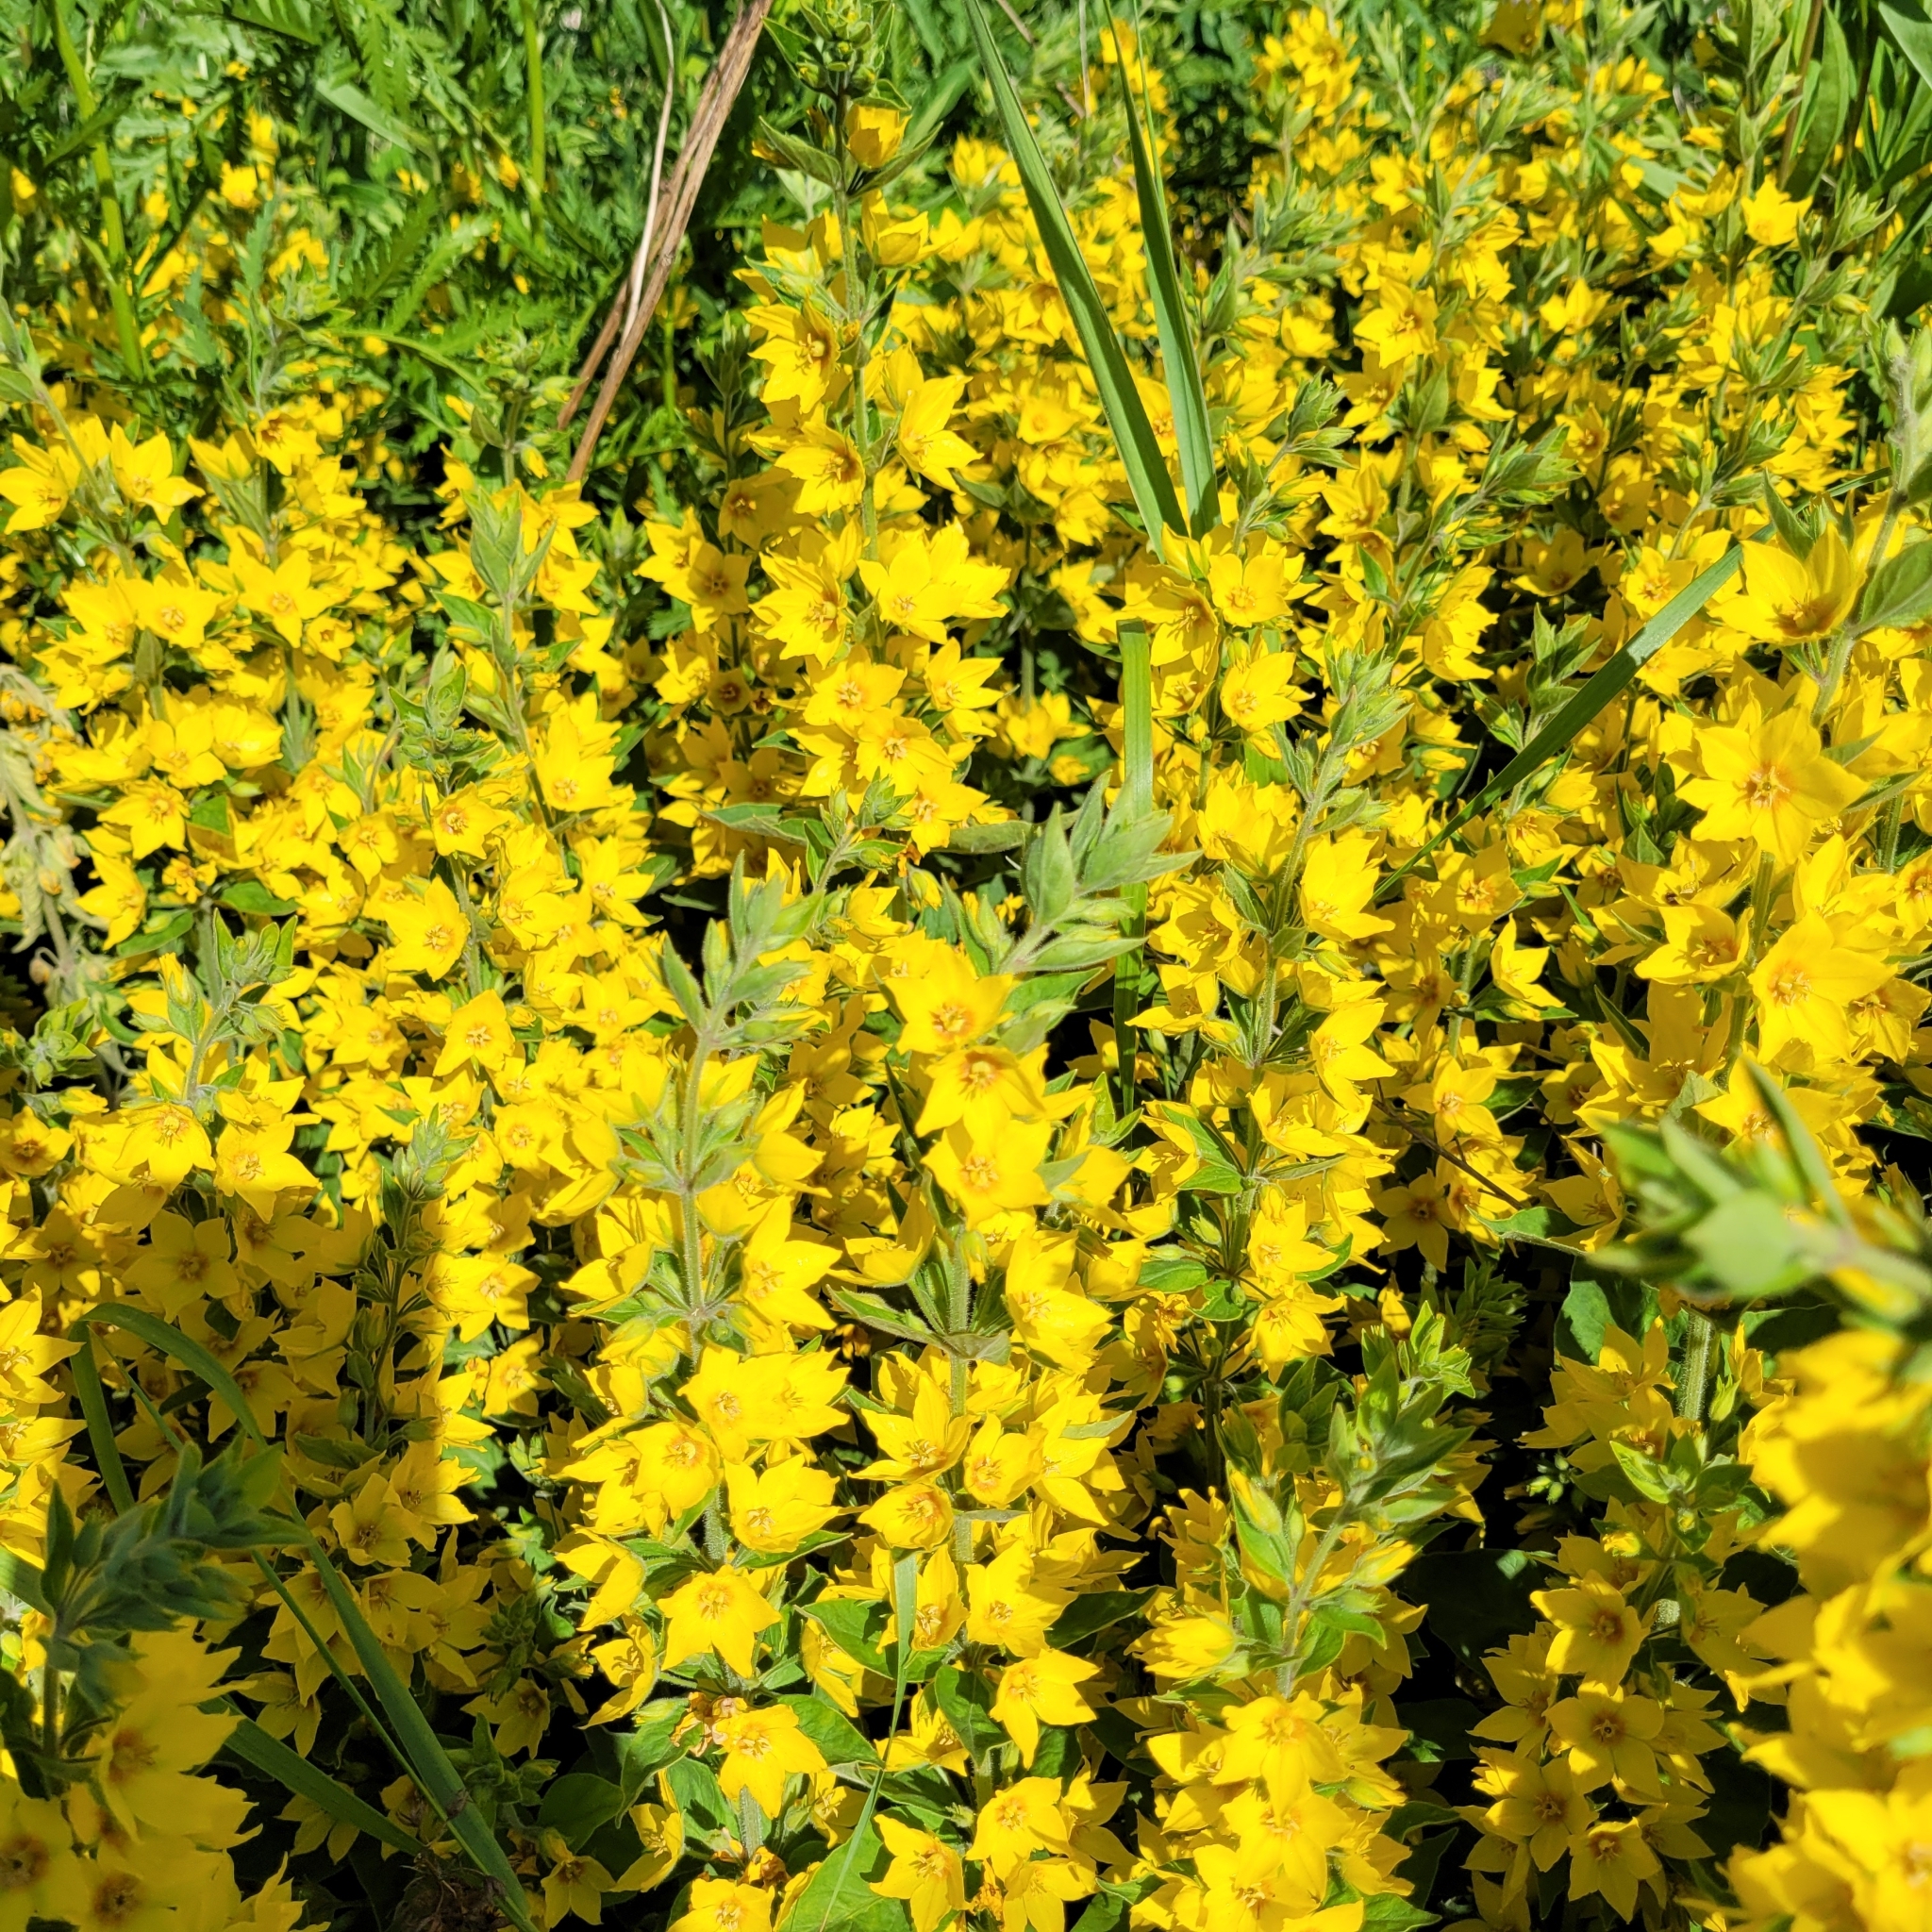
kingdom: Plantae
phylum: Tracheophyta
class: Magnoliopsida
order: Ericales
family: Primulaceae
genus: Lysimachia
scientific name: Lysimachia punctata
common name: Dotted loosestrife
